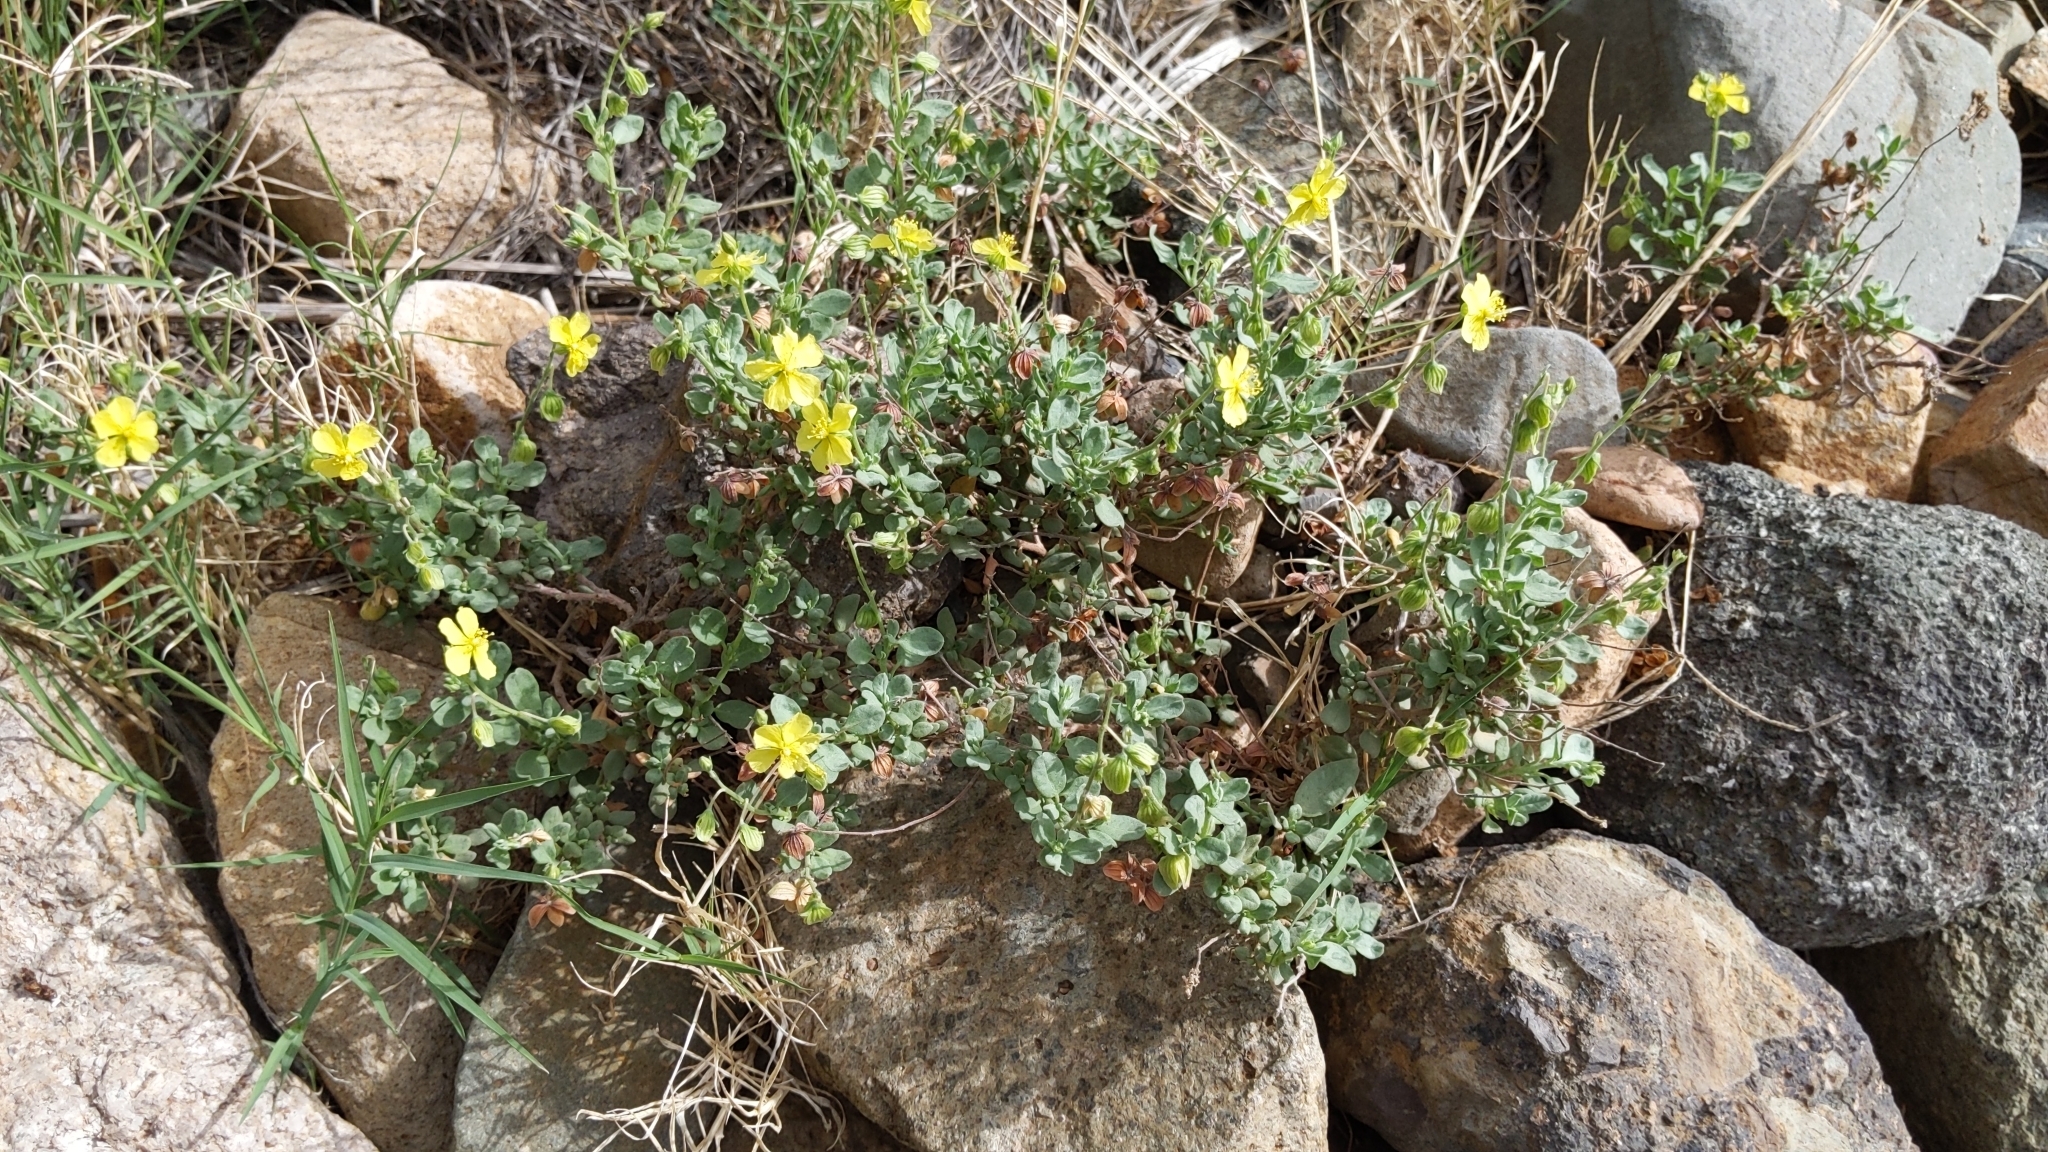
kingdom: Plantae
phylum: Tracheophyta
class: Magnoliopsida
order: Malvales
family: Cistaceae
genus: Helianthemum
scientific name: Helianthemum canariense
